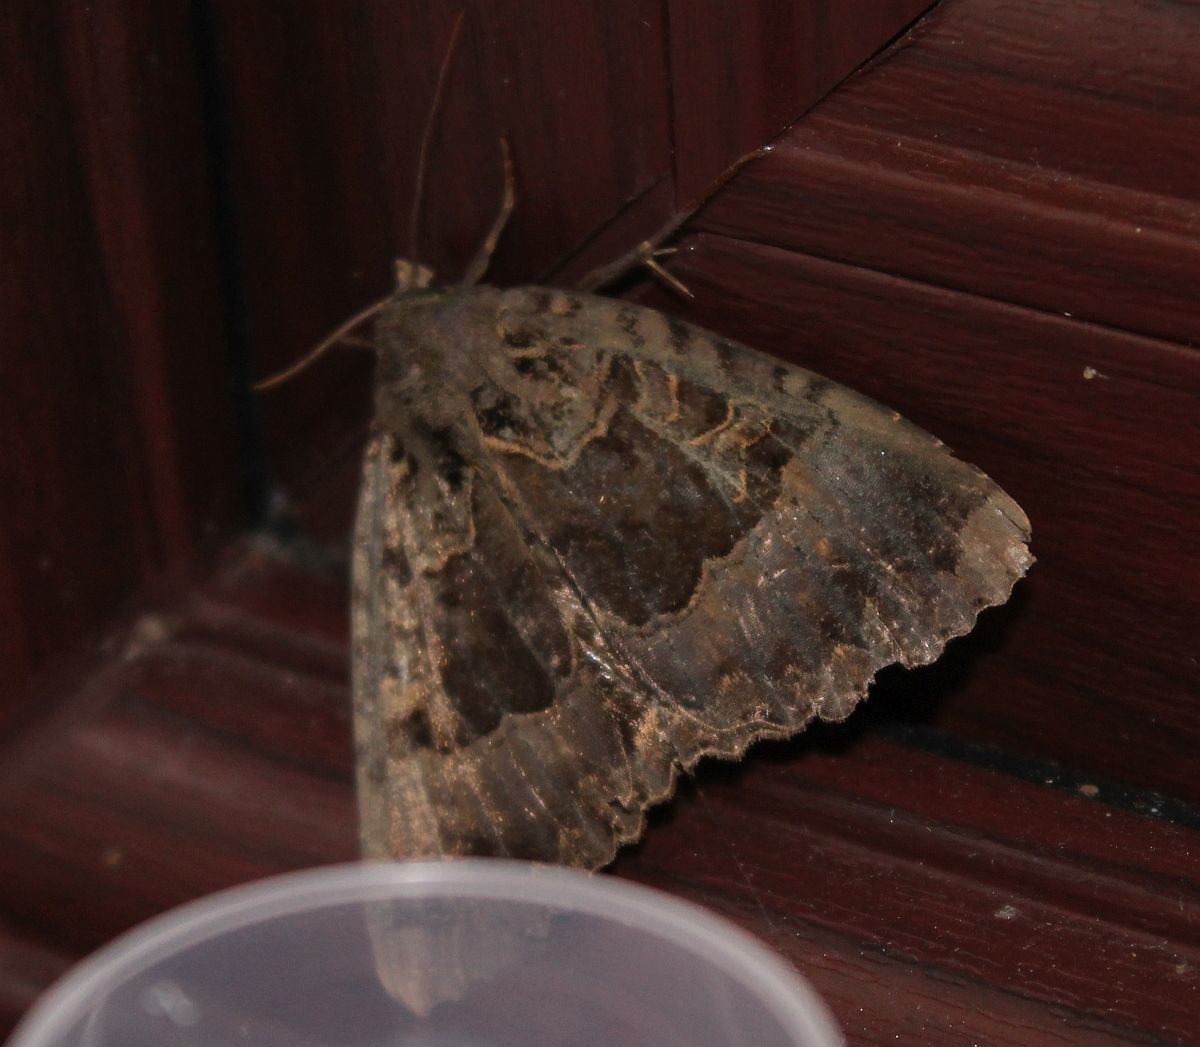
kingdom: Animalia
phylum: Arthropoda
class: Insecta
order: Lepidoptera
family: Noctuidae
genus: Mormo
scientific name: Mormo maura
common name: Old lady
